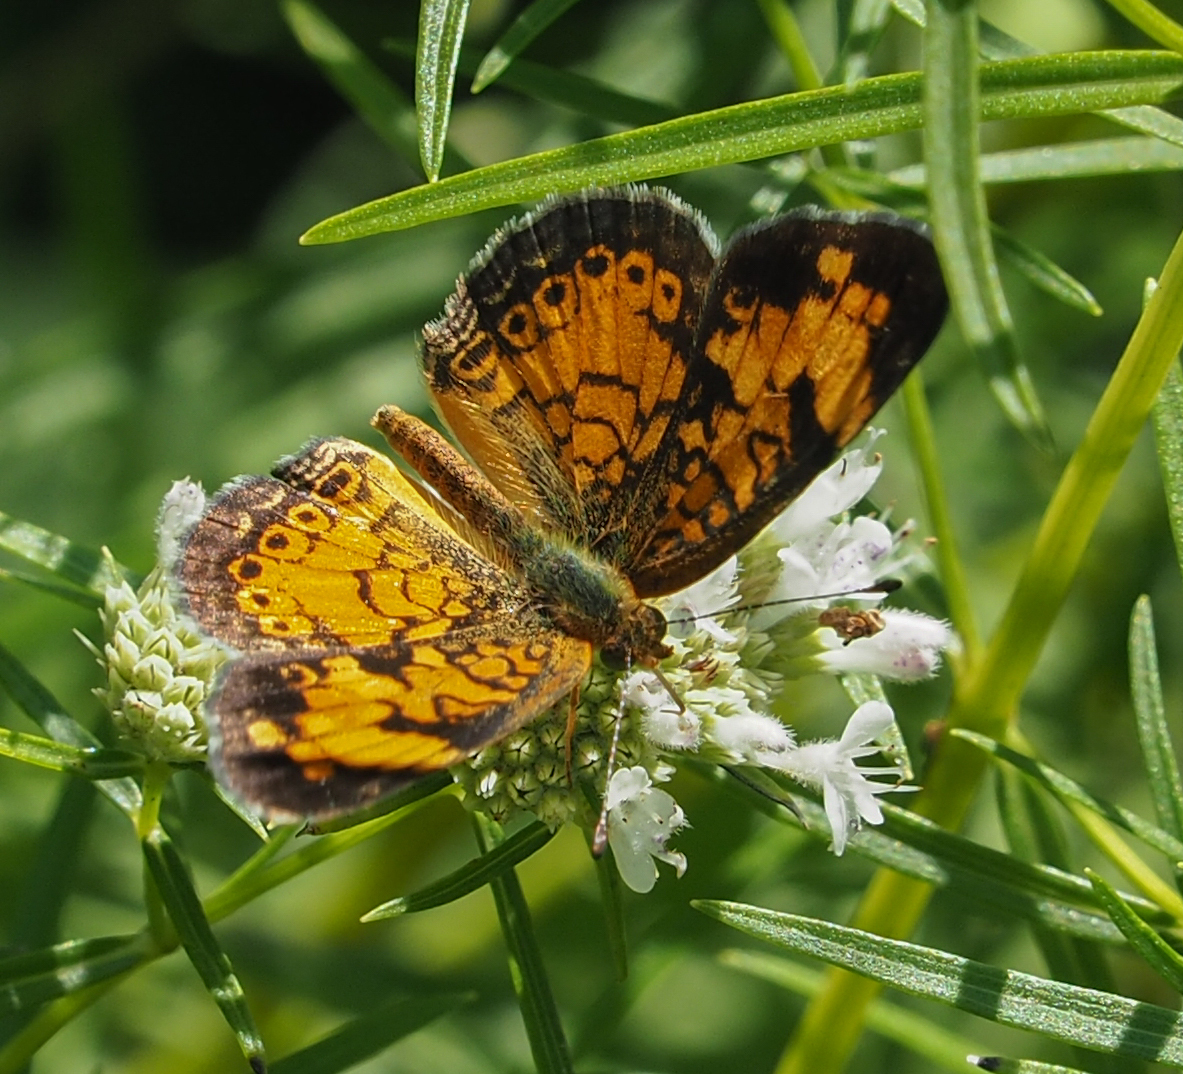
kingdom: Animalia
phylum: Arthropoda
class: Insecta
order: Lepidoptera
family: Nymphalidae
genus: Phyciodes
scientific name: Phyciodes tharos
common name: Pearl crescent
